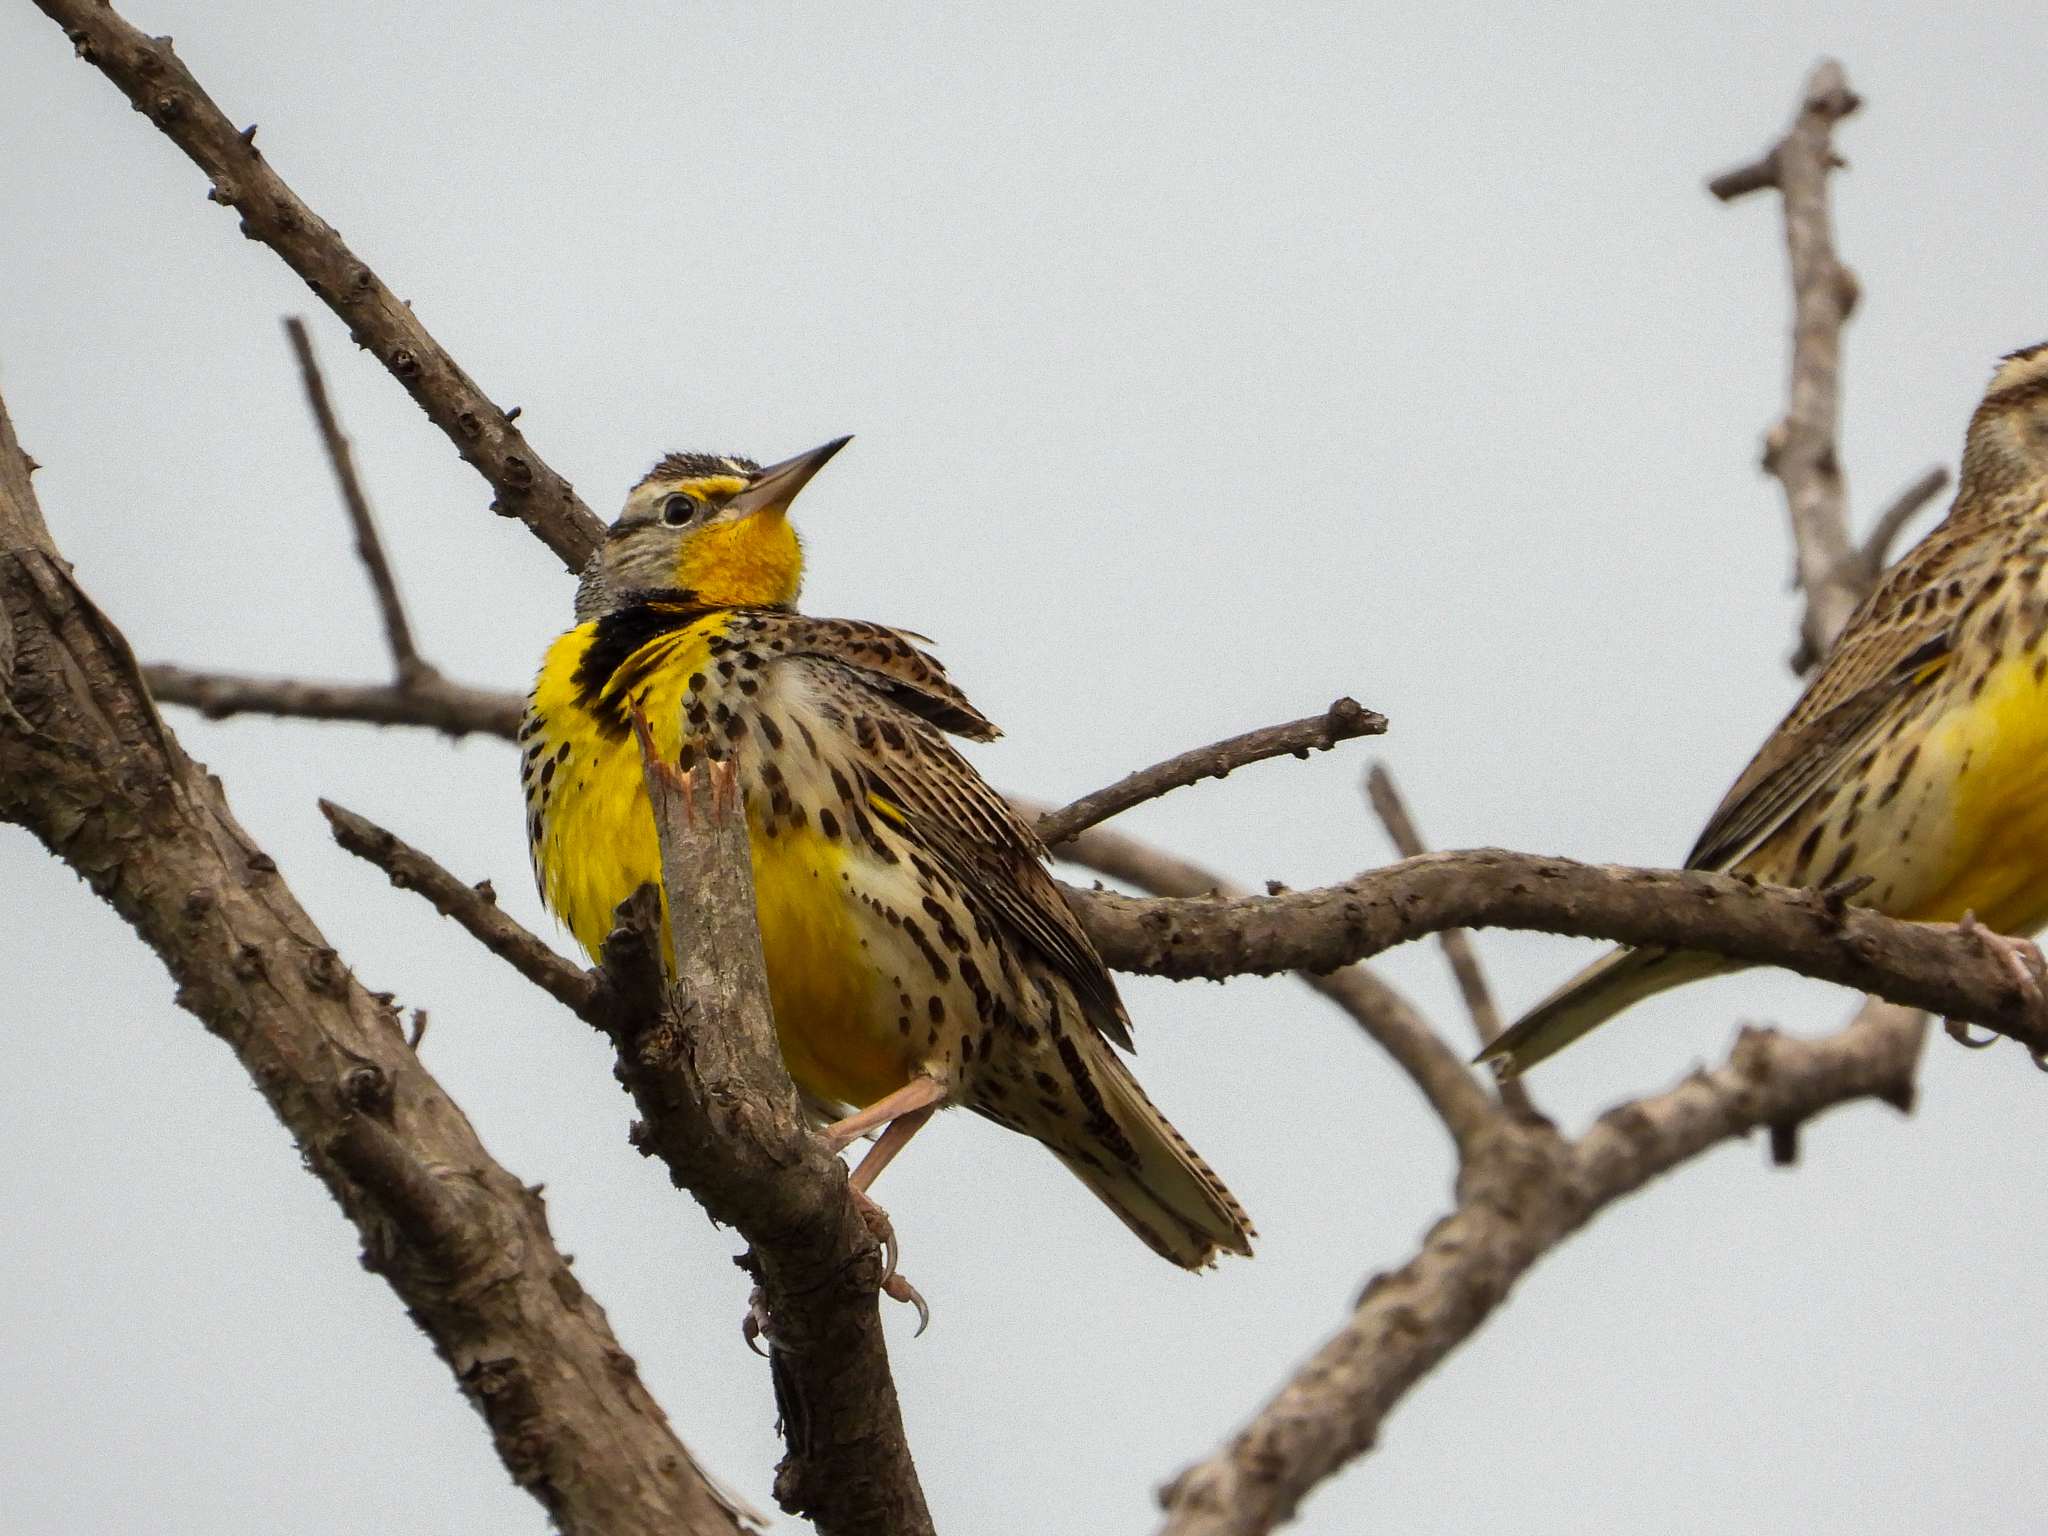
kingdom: Animalia
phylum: Chordata
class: Aves
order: Passeriformes
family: Icteridae
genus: Sturnella
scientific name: Sturnella neglecta
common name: Western meadowlark
